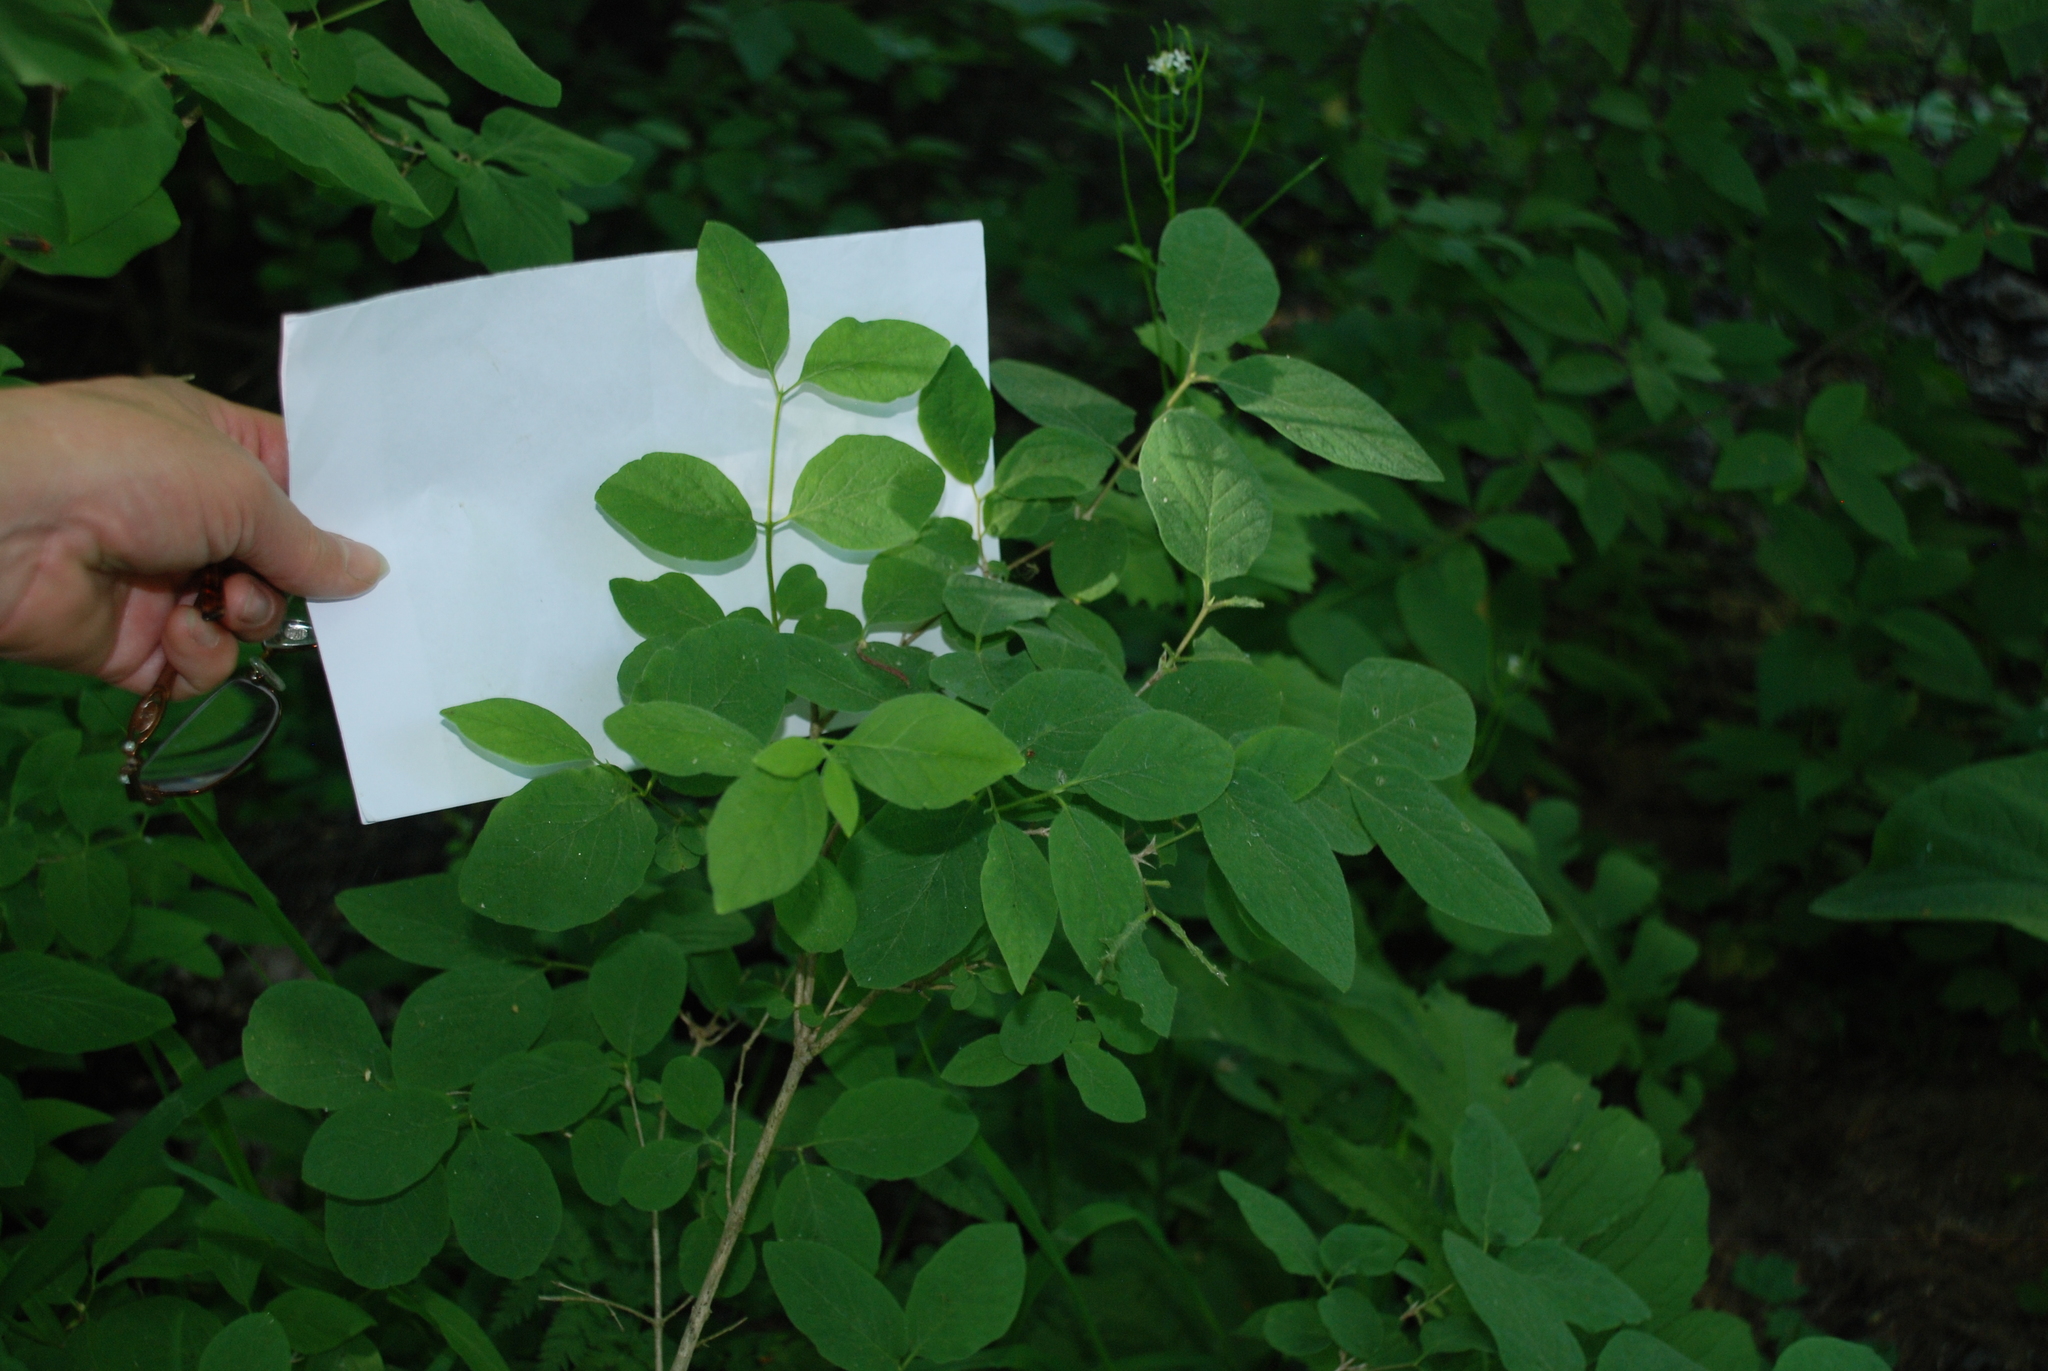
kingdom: Plantae
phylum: Tracheophyta
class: Magnoliopsida
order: Dipsacales
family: Caprifoliaceae
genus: Lonicera
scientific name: Lonicera xylosteum
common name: Fly honeysuckle
